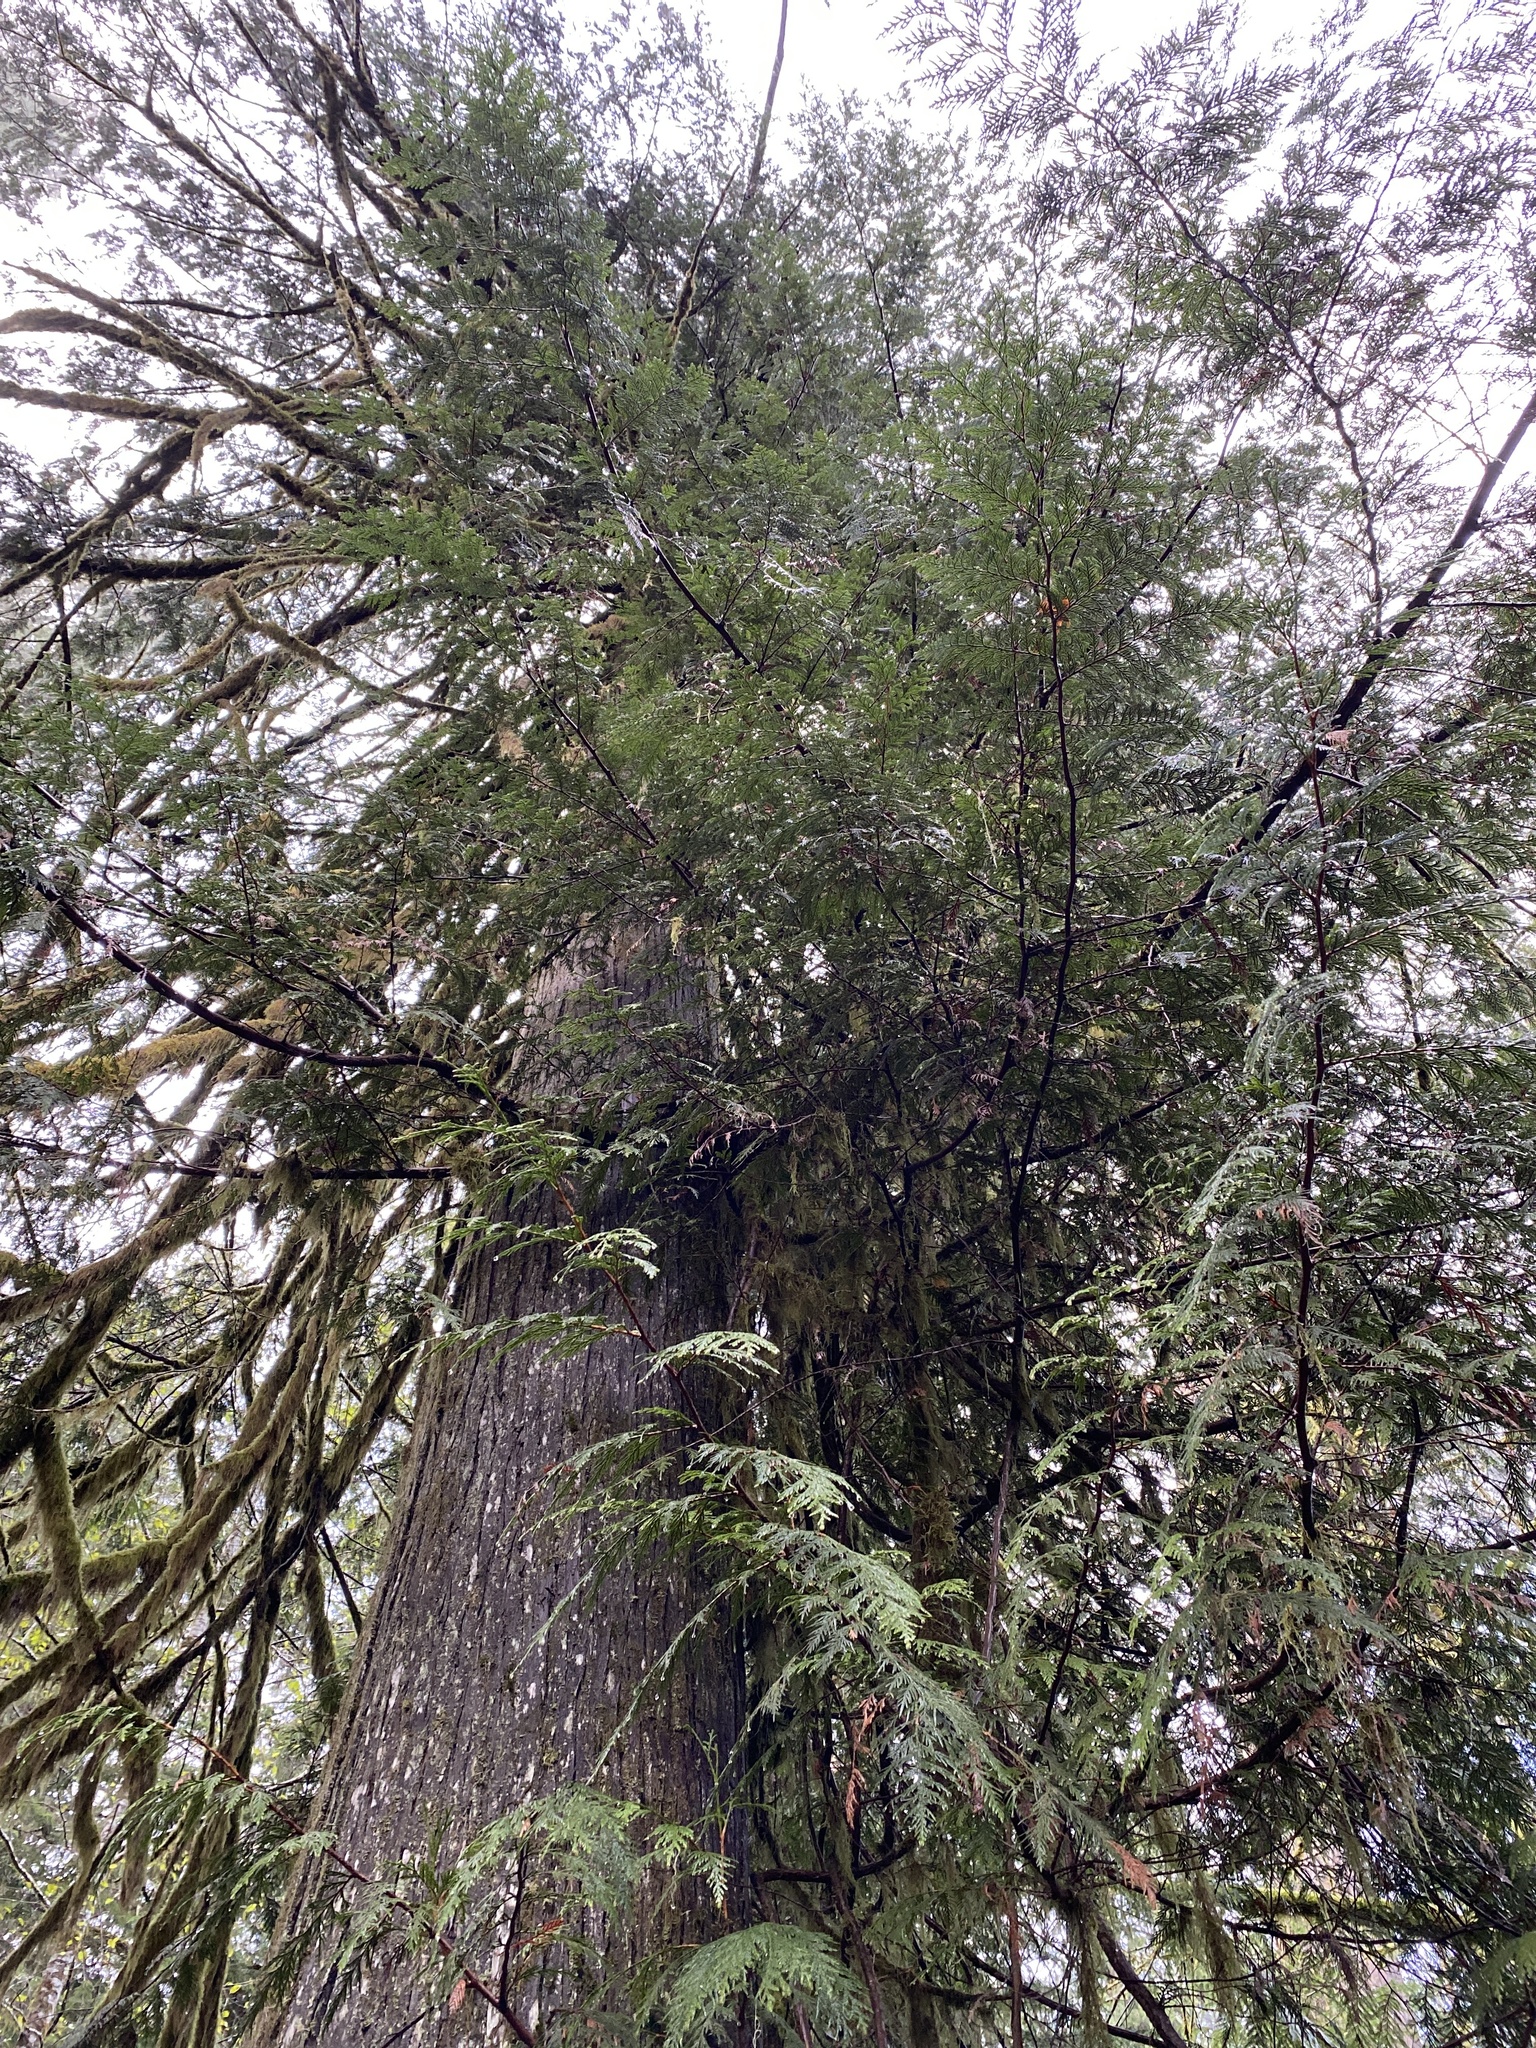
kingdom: Plantae
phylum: Tracheophyta
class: Pinopsida
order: Pinales
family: Cupressaceae
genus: Thuja
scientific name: Thuja plicata
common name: Western red-cedar
